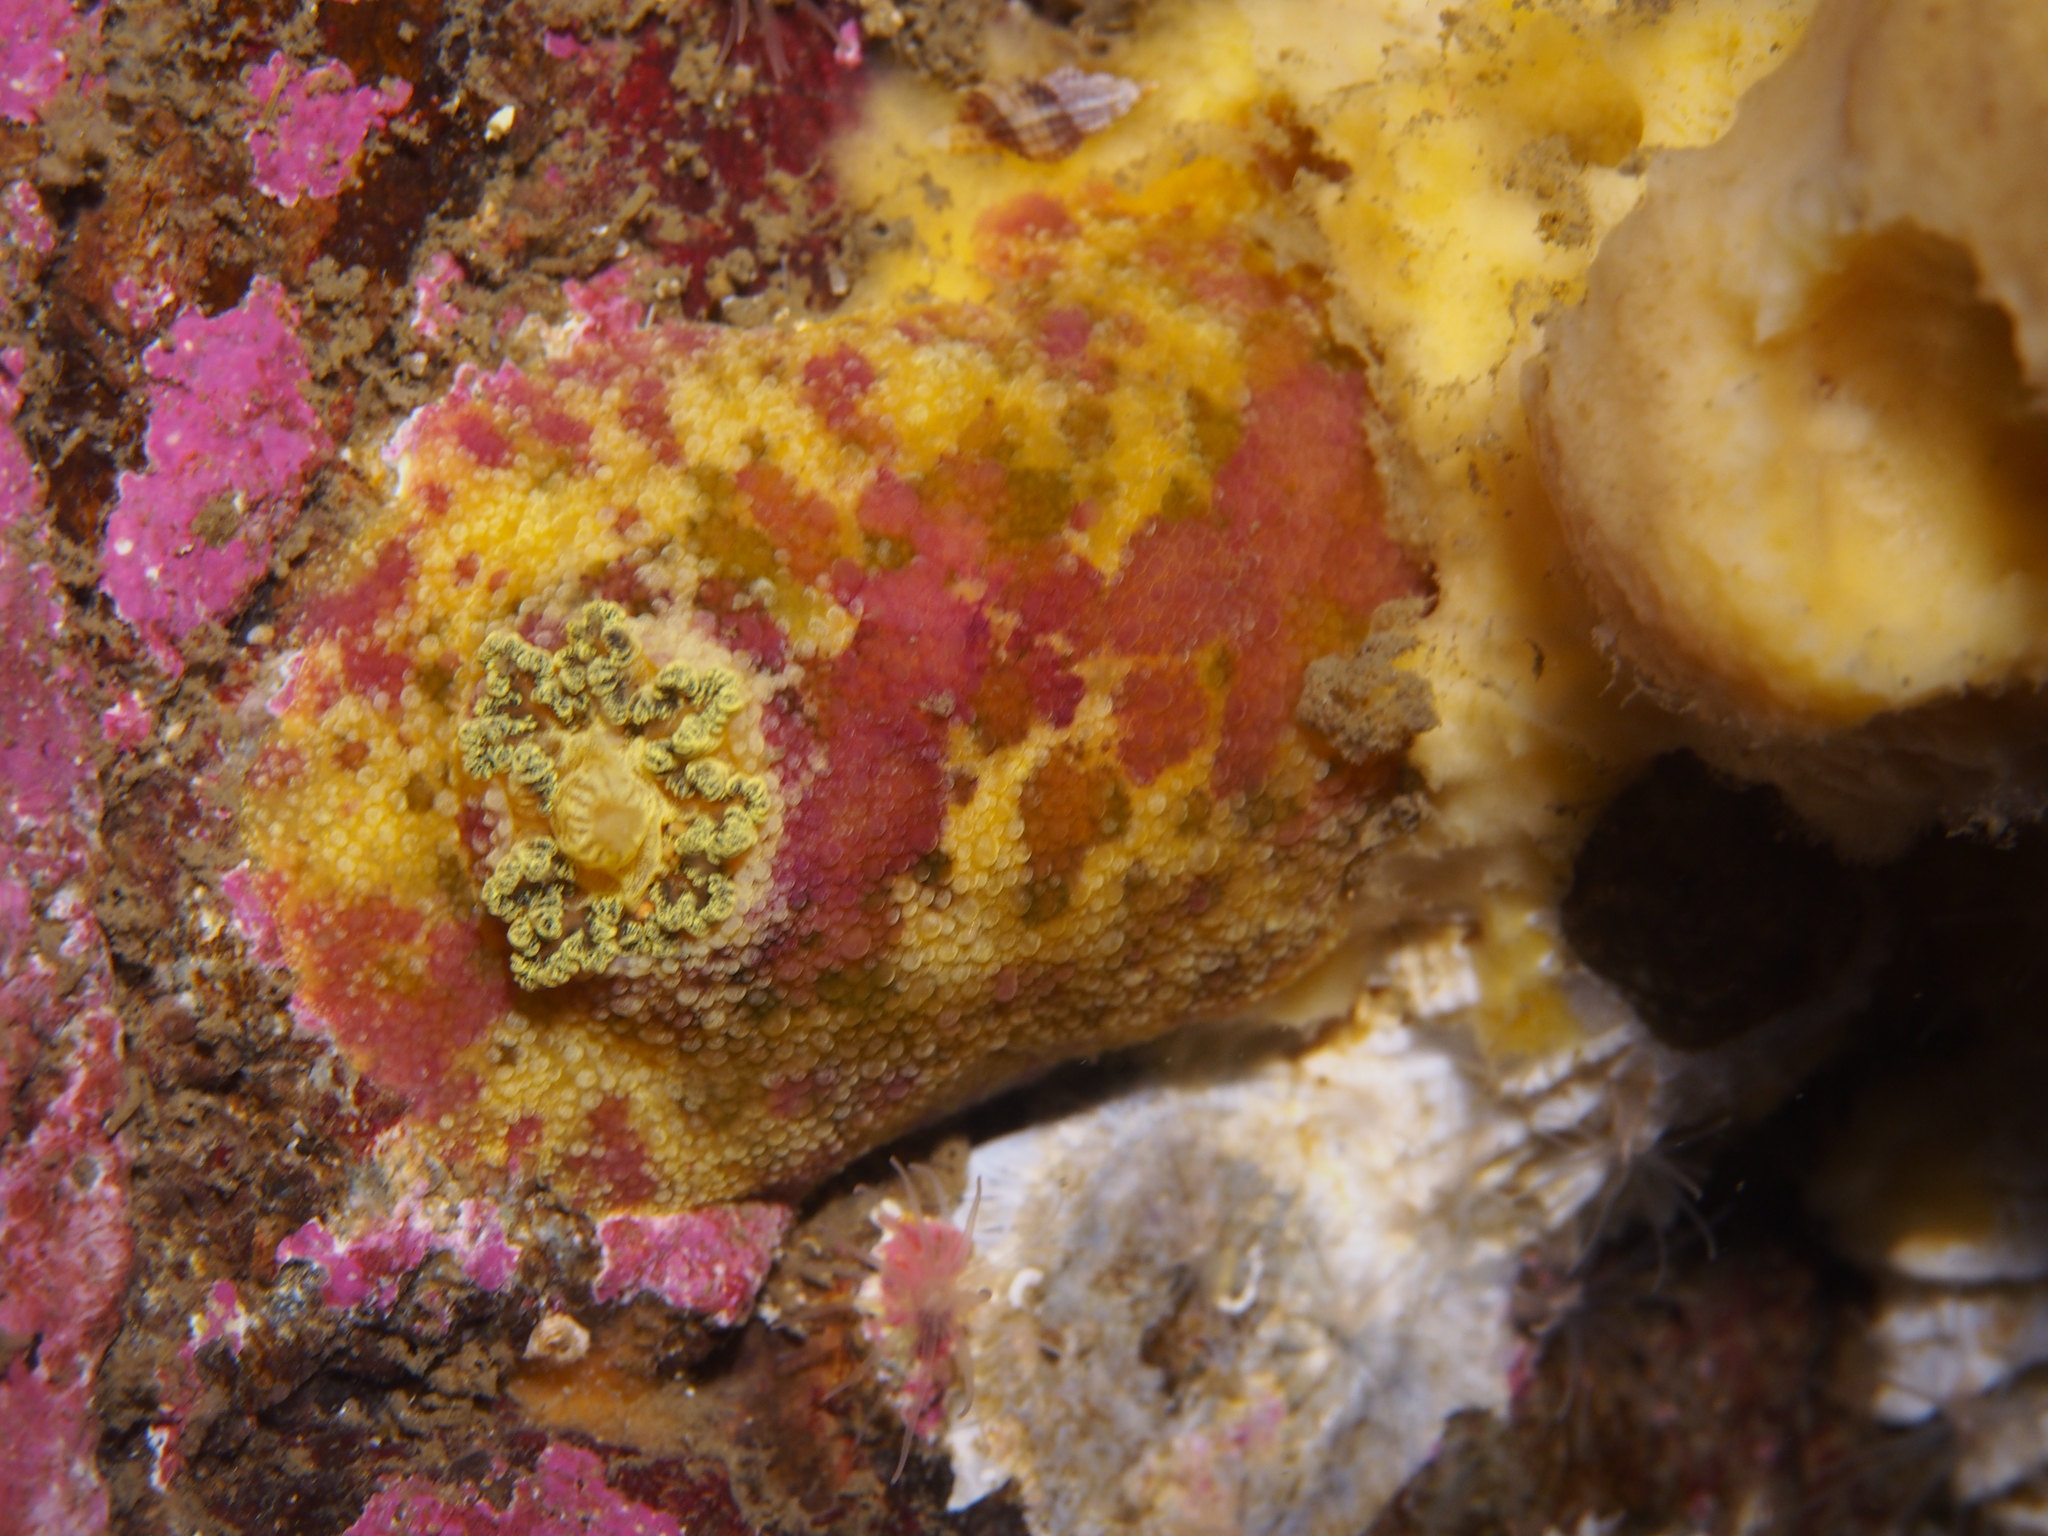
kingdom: Animalia
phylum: Mollusca
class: Gastropoda
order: Nudibranchia
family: Dorididae
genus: Doris
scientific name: Doris pseudoargus
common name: Sea lemon
